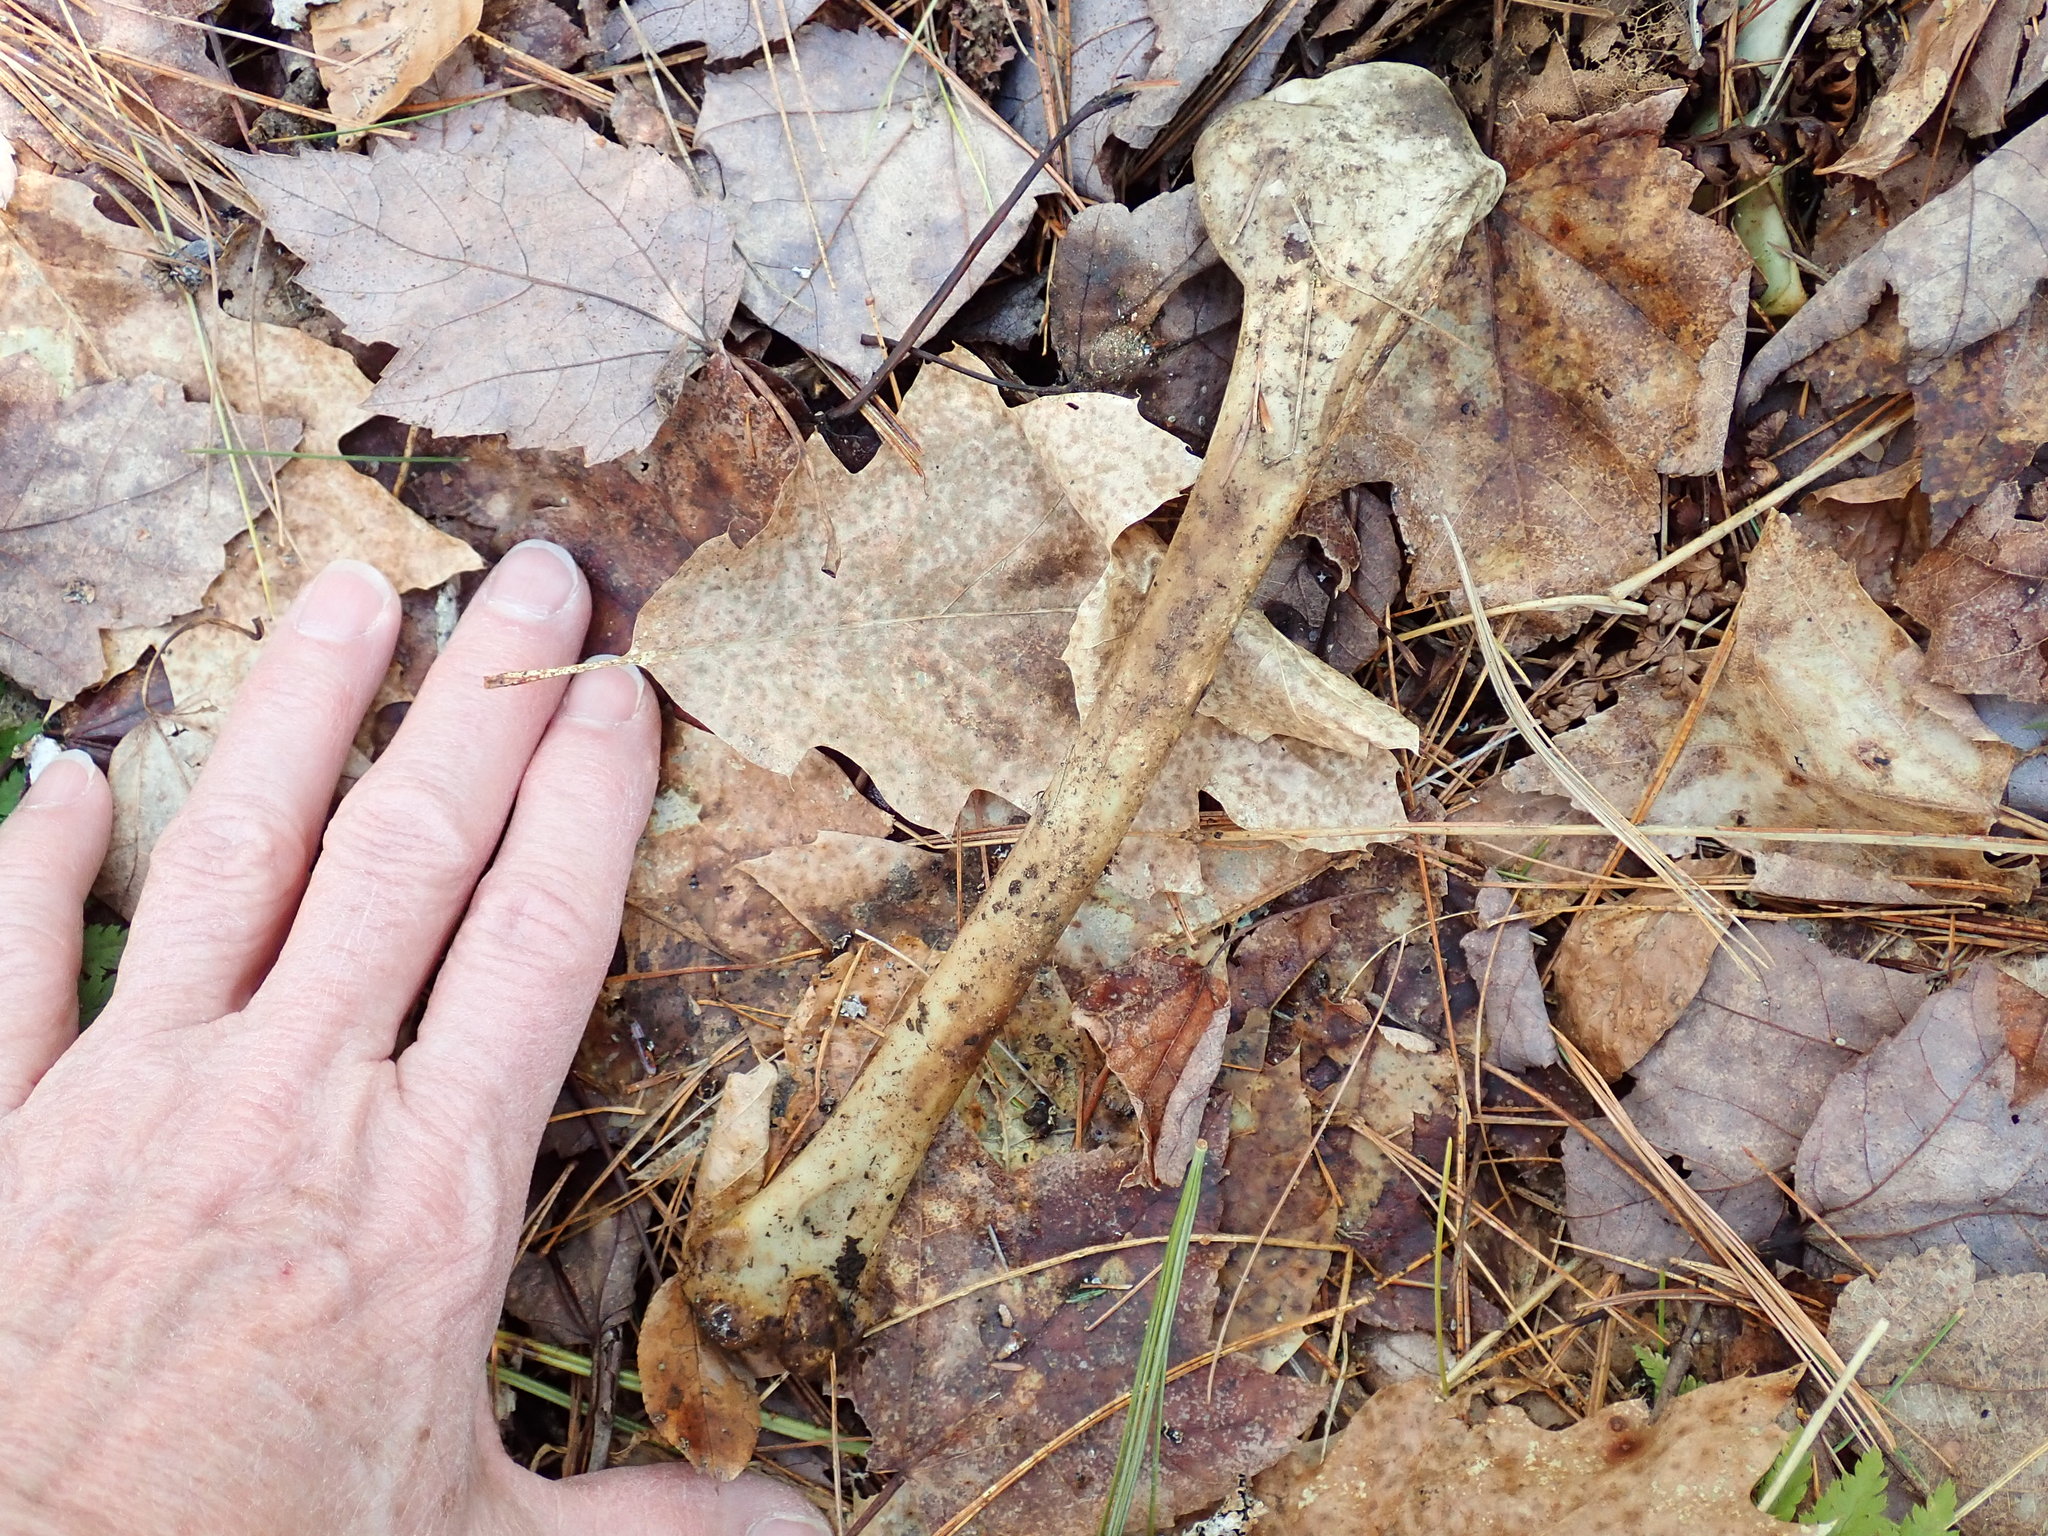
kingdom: Animalia
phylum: Chordata
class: Aves
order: Anseriformes
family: Anatidae
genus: Branta
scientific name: Branta canadensis
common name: Canada goose
